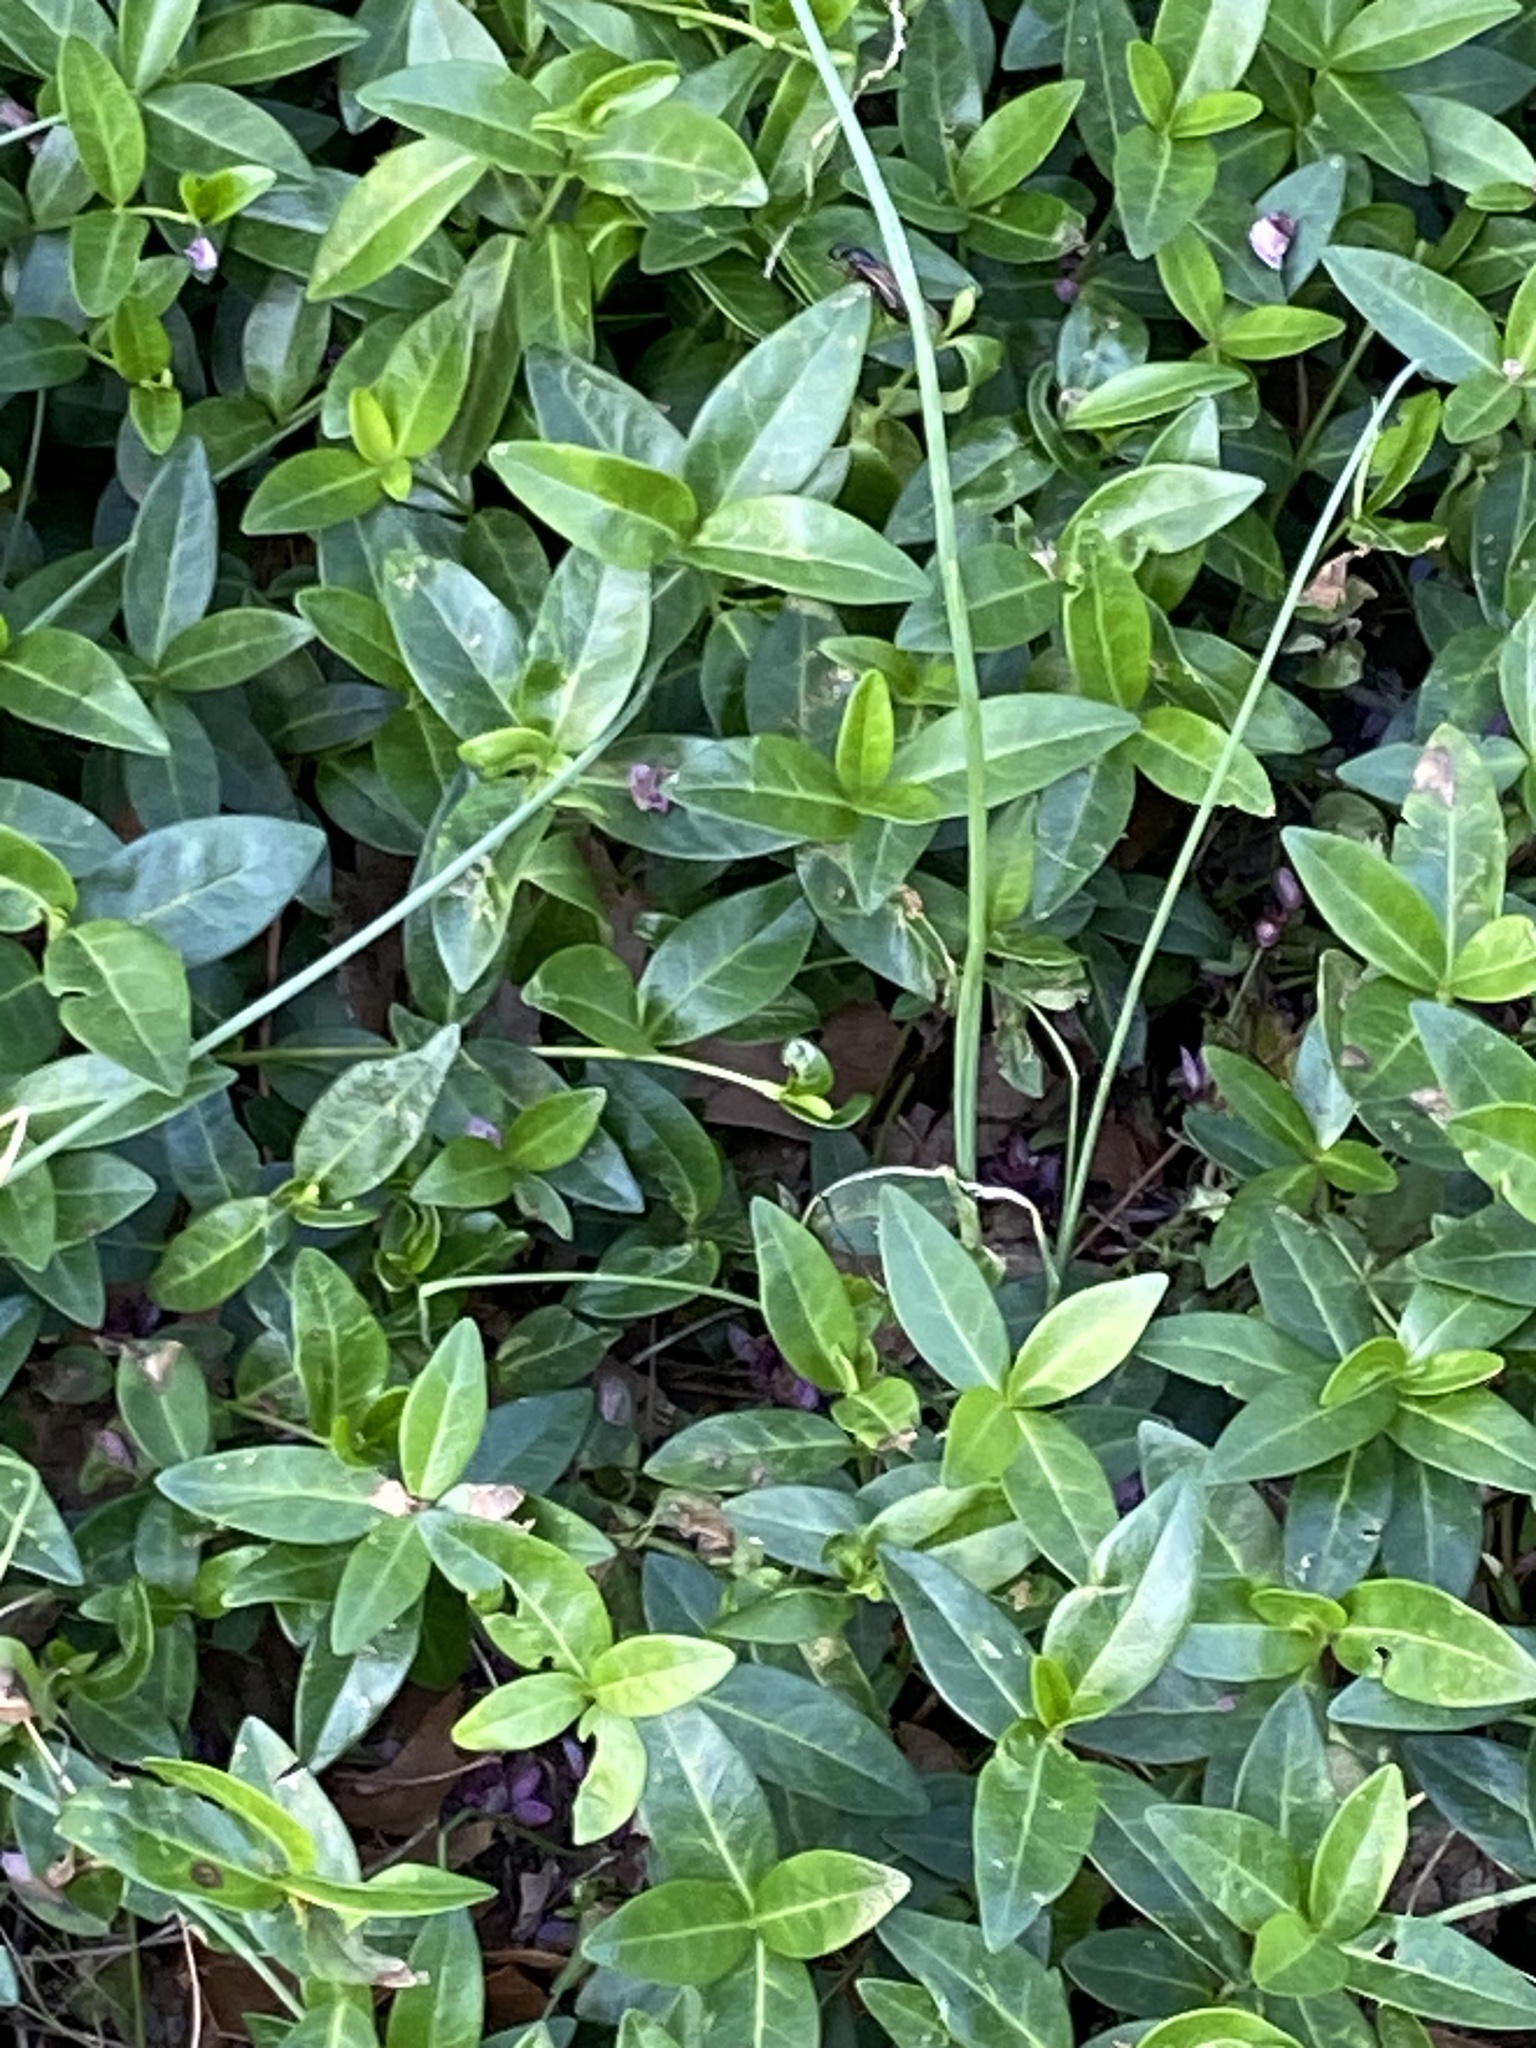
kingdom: Plantae
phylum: Tracheophyta
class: Magnoliopsida
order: Gentianales
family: Apocynaceae
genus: Vinca
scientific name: Vinca minor
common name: Lesser periwinkle
